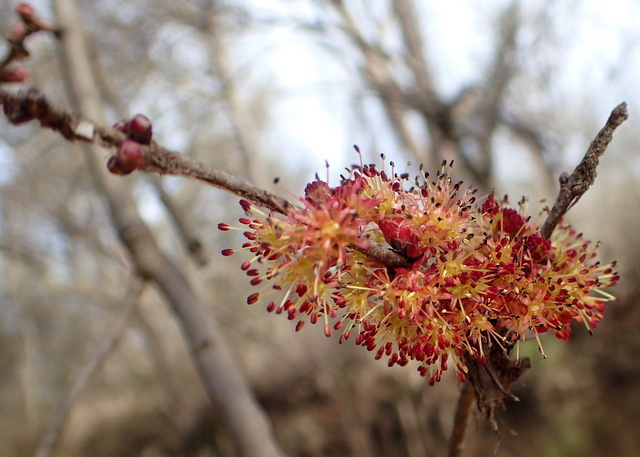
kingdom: Plantae
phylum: Tracheophyta
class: Magnoliopsida
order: Sapindales
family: Sapindaceae
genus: Acer
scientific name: Acer rubrum
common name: Red maple
